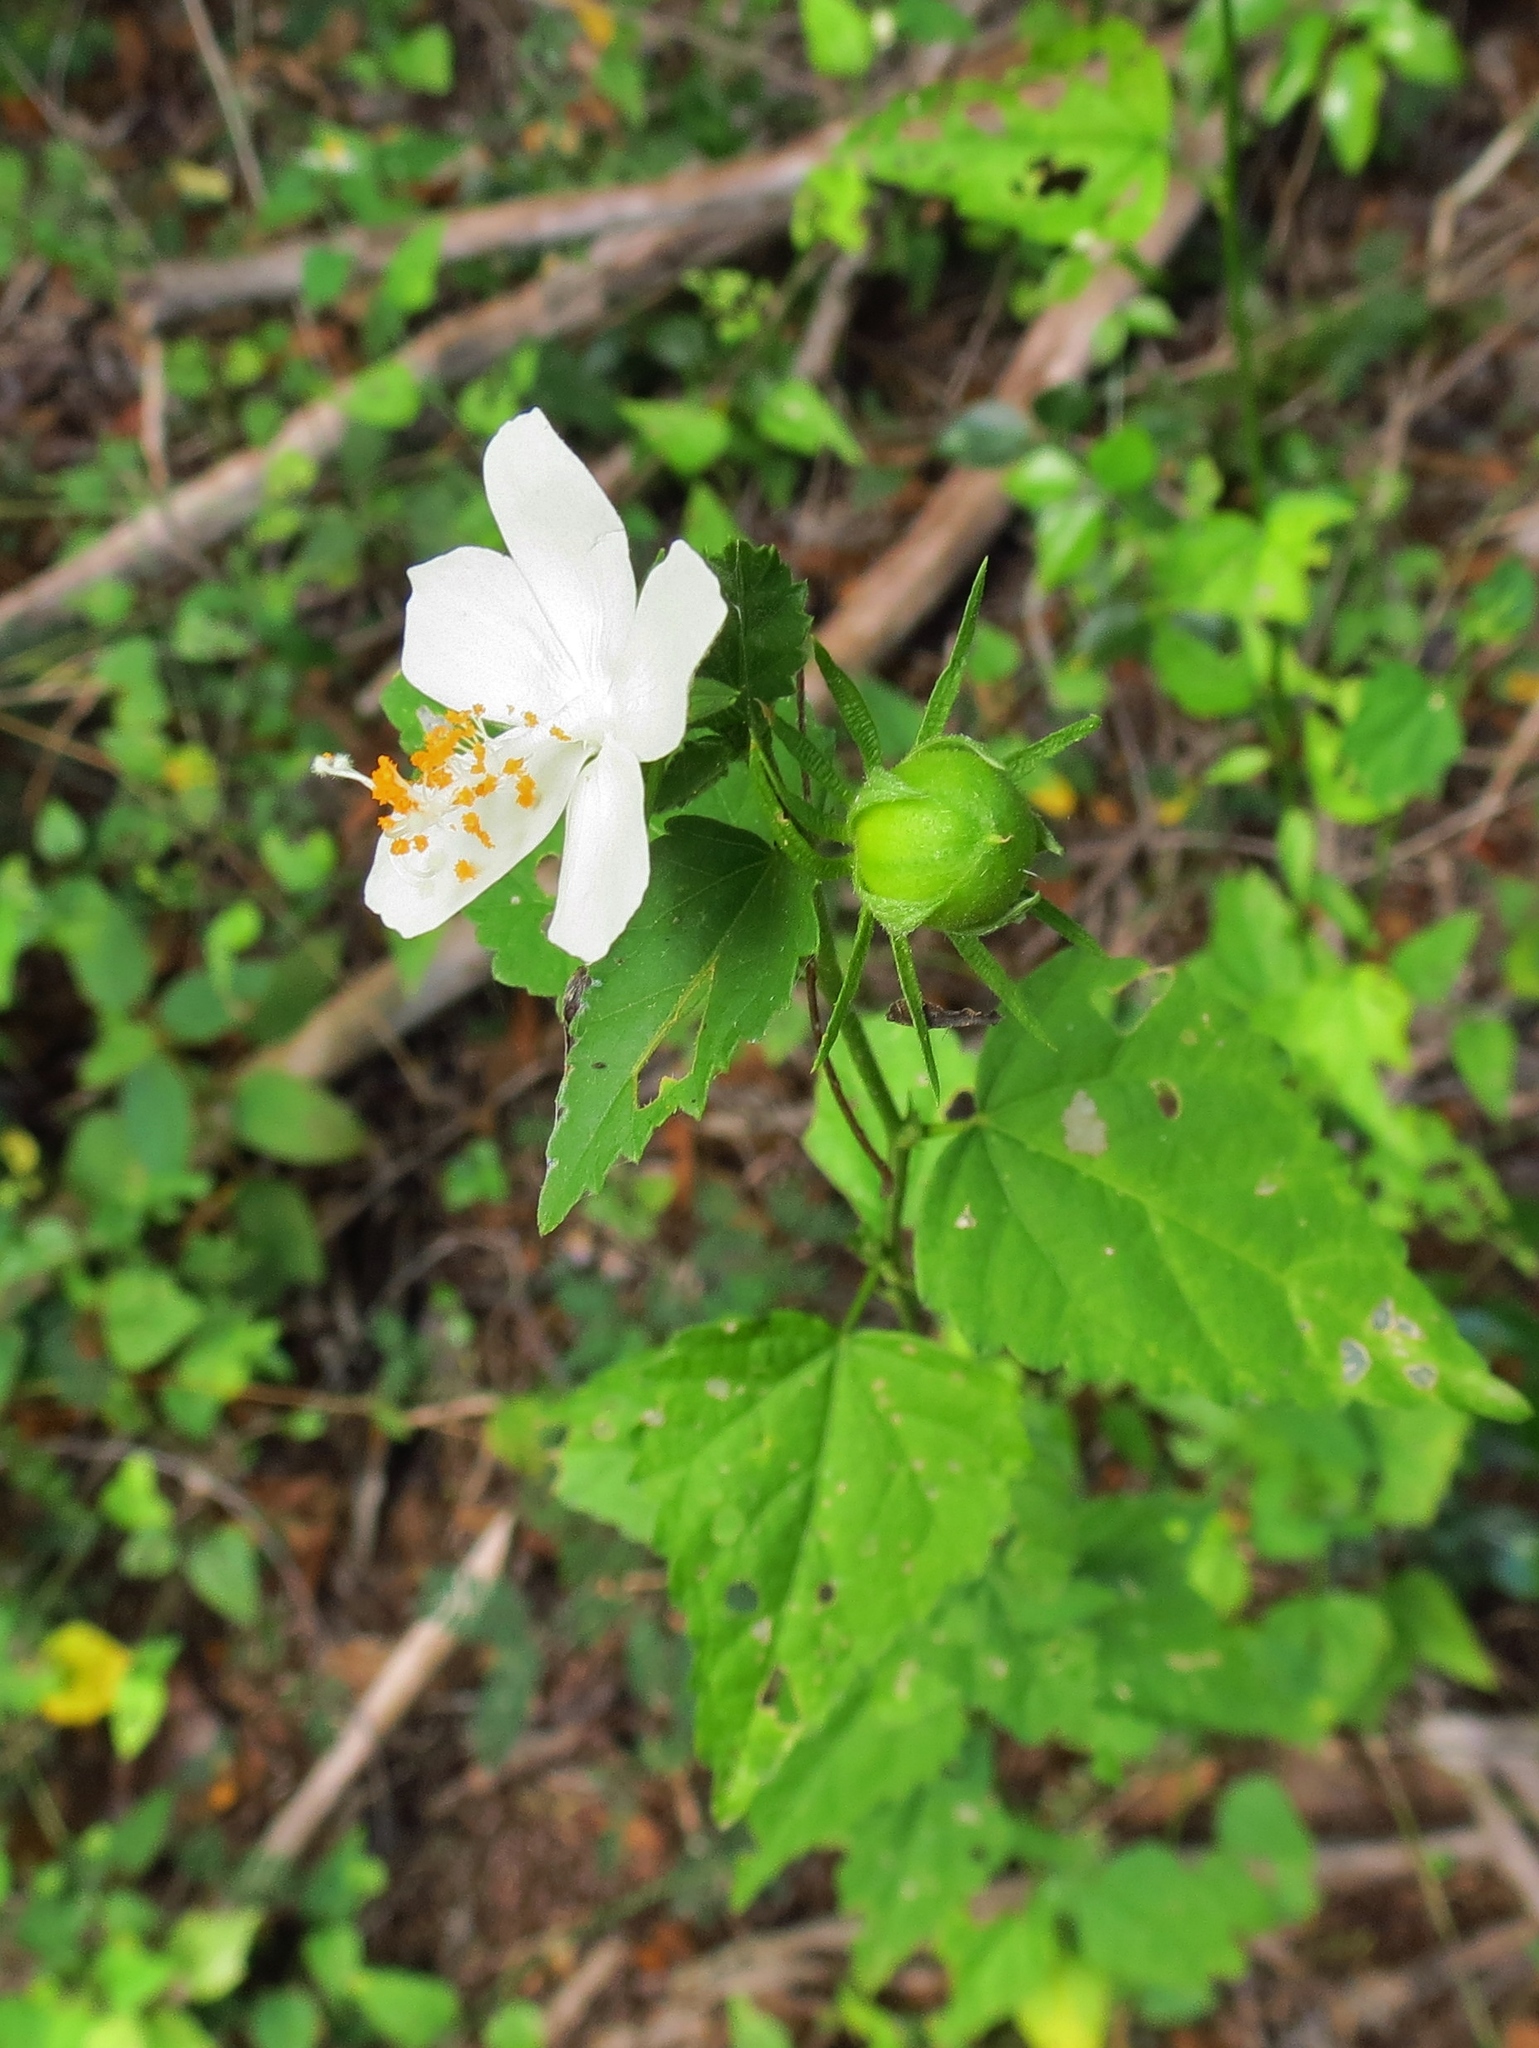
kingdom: Plantae
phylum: Tracheophyta
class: Magnoliopsida
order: Malvales
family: Malvaceae
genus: Hibiscus
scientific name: Hibiscus phoeniceus
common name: Brazilian rosemallow
